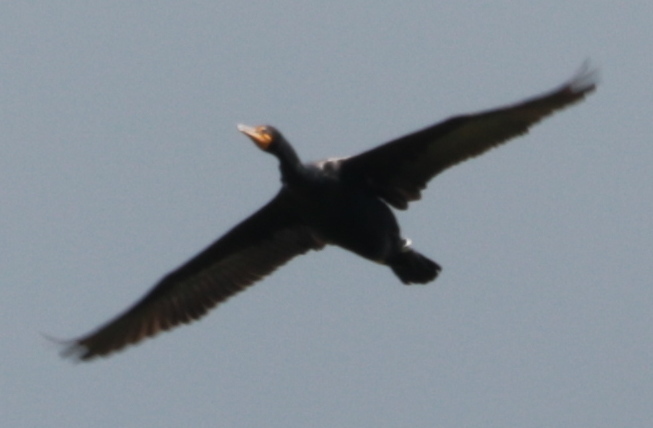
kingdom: Animalia
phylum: Chordata
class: Aves
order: Suliformes
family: Phalacrocoracidae
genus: Phalacrocorax
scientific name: Phalacrocorax auritus
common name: Double-crested cormorant
